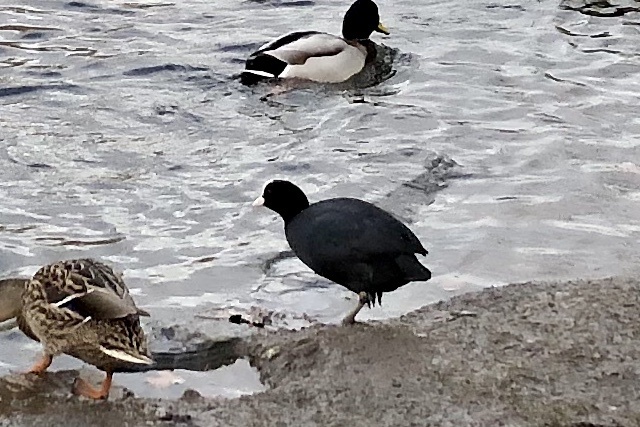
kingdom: Animalia
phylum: Chordata
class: Aves
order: Gruiformes
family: Rallidae
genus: Fulica
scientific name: Fulica atra
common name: Eurasian coot
